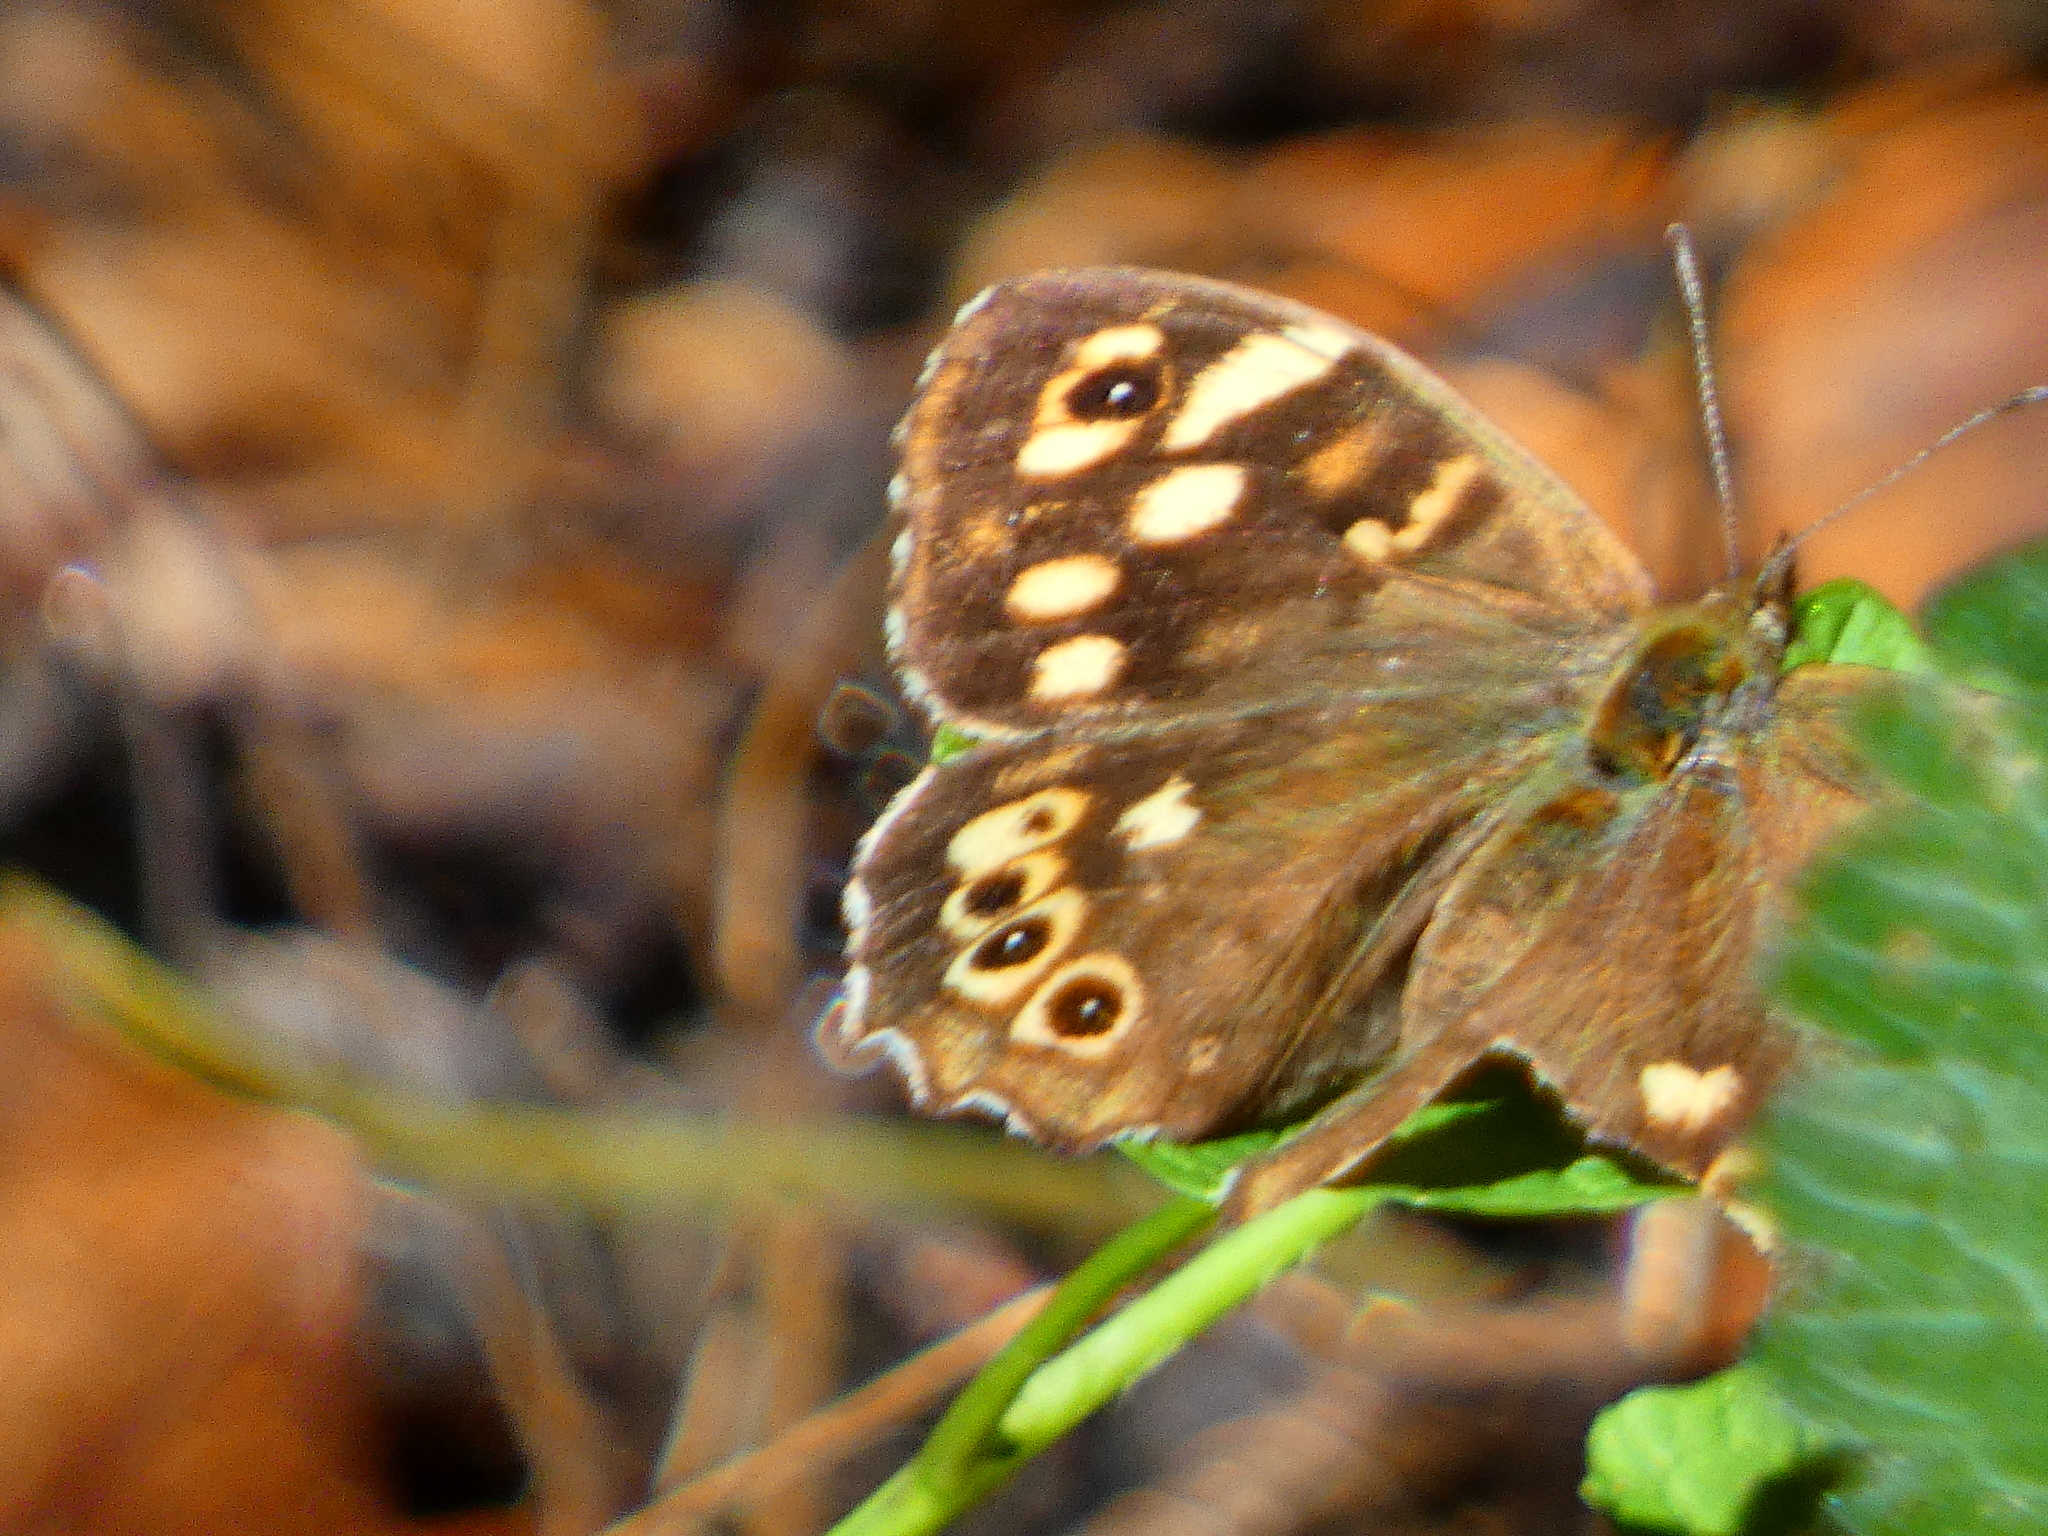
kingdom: Animalia
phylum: Arthropoda
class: Insecta
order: Lepidoptera
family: Nymphalidae
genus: Pararge
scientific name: Pararge aegeria
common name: Speckled wood
